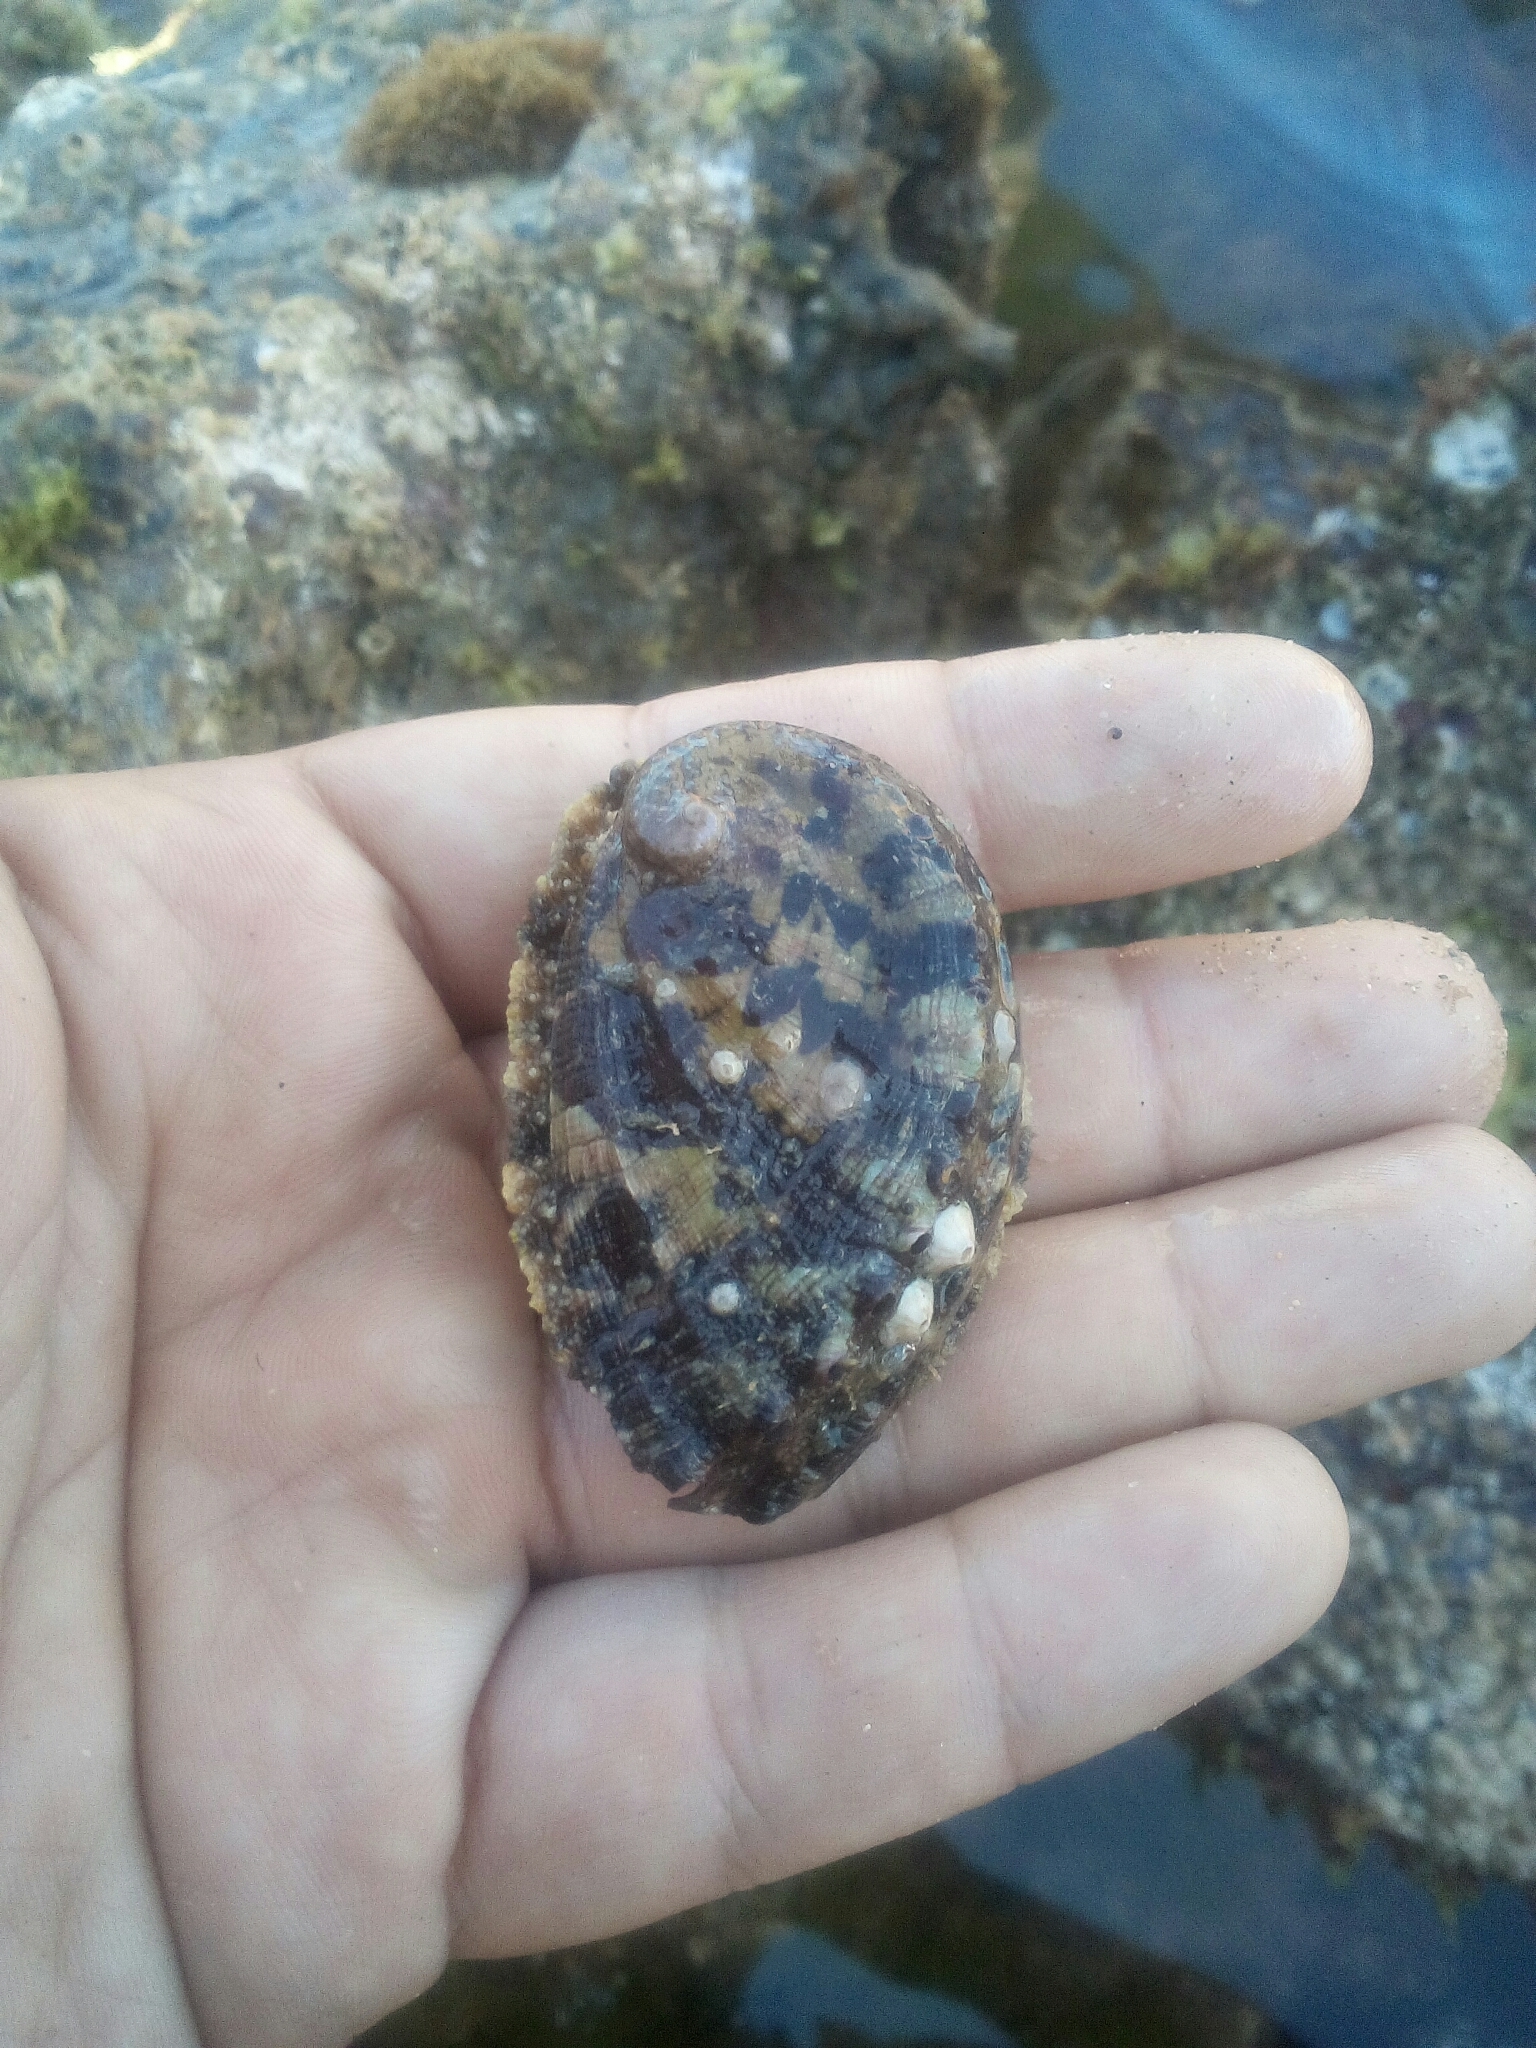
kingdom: Animalia
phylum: Mollusca
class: Gastropoda
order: Lepetellida
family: Haliotidae
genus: Haliotis
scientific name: Haliotis tuberculata
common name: Green ormer
